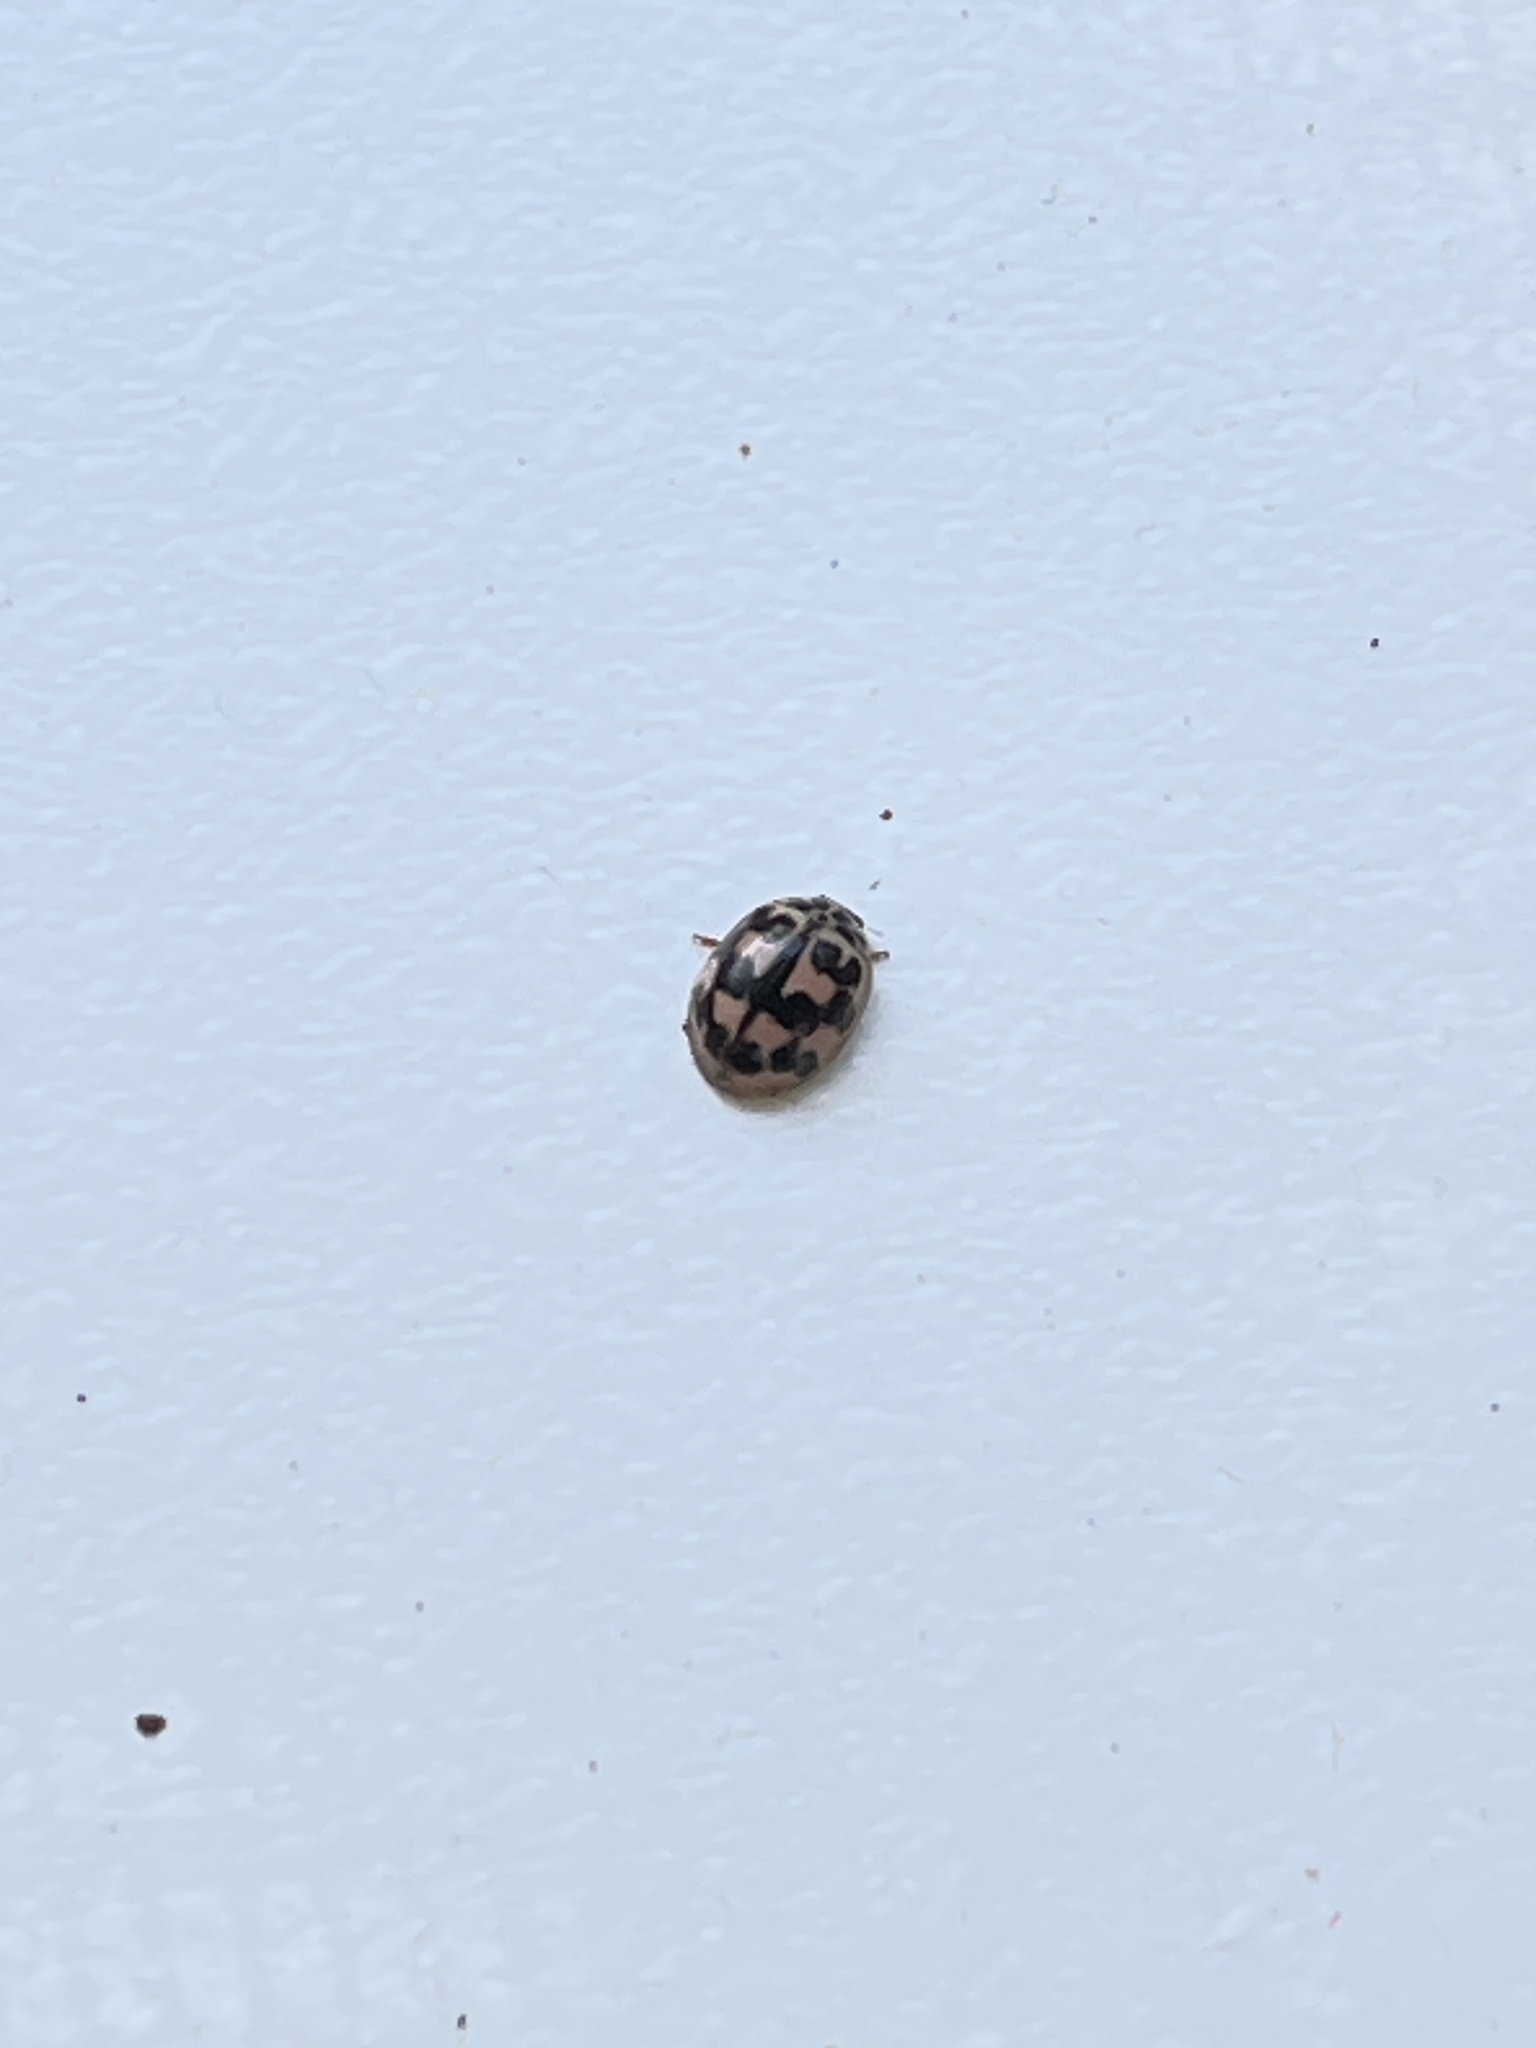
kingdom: Animalia
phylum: Arthropoda
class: Insecta
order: Coleoptera
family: Coccinellidae
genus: Oenopia
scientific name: Oenopia conglobata
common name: Ladybird beetle
